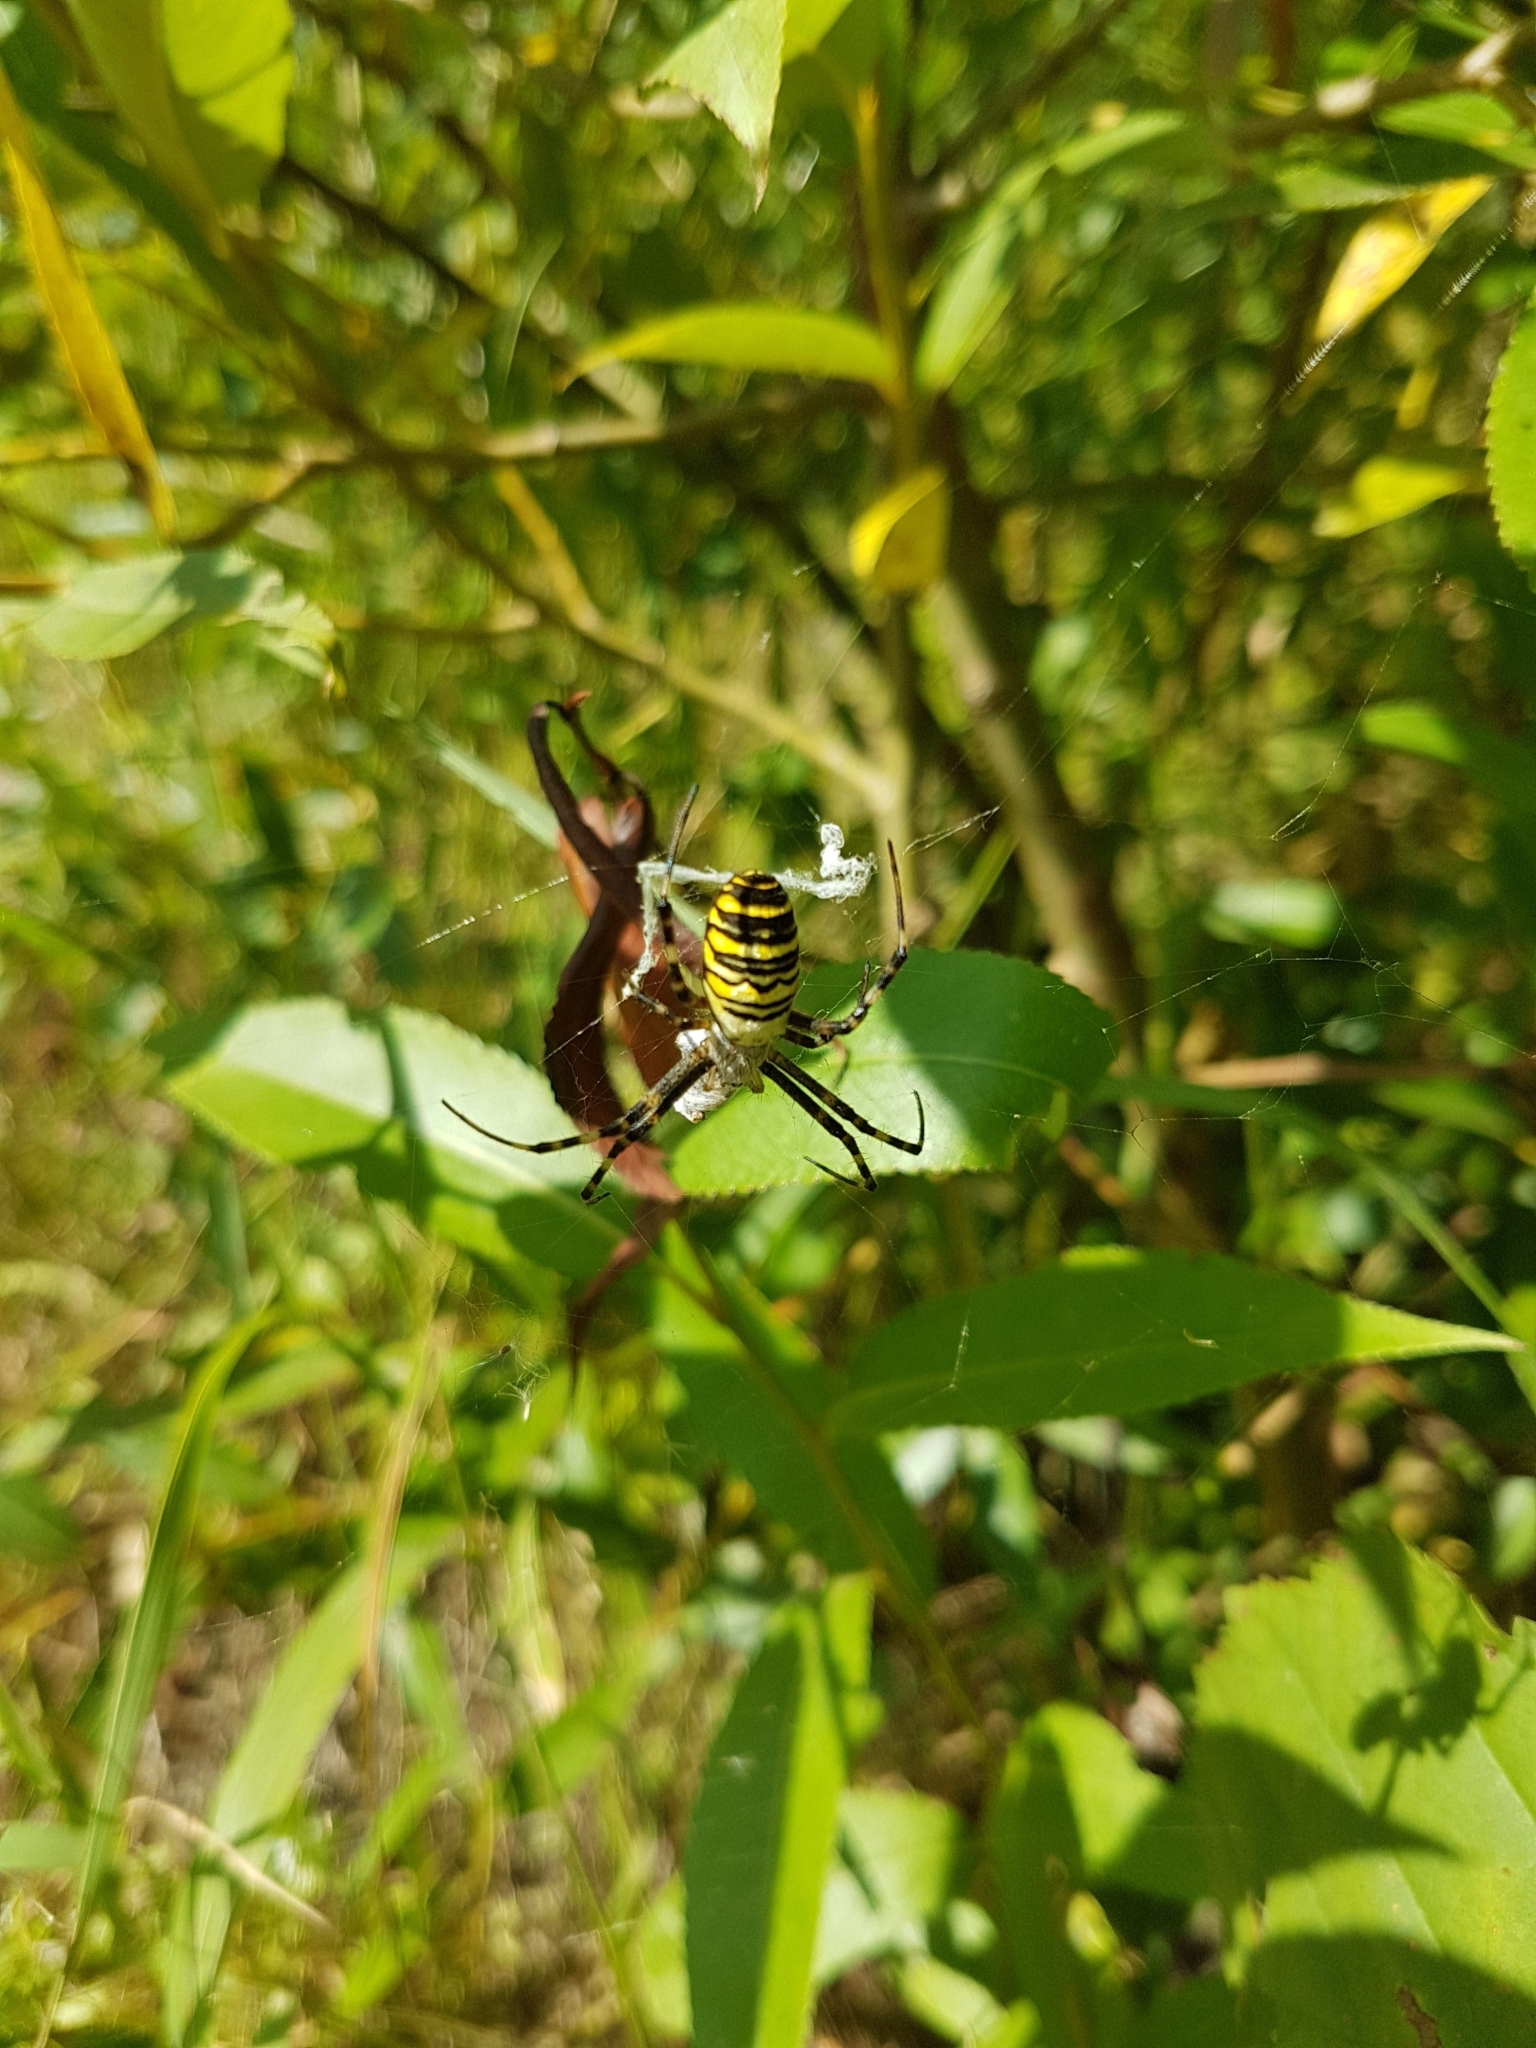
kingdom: Animalia
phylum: Arthropoda
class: Arachnida
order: Araneae
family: Araneidae
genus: Argiope
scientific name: Argiope bruennichi
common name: Wasp spider
